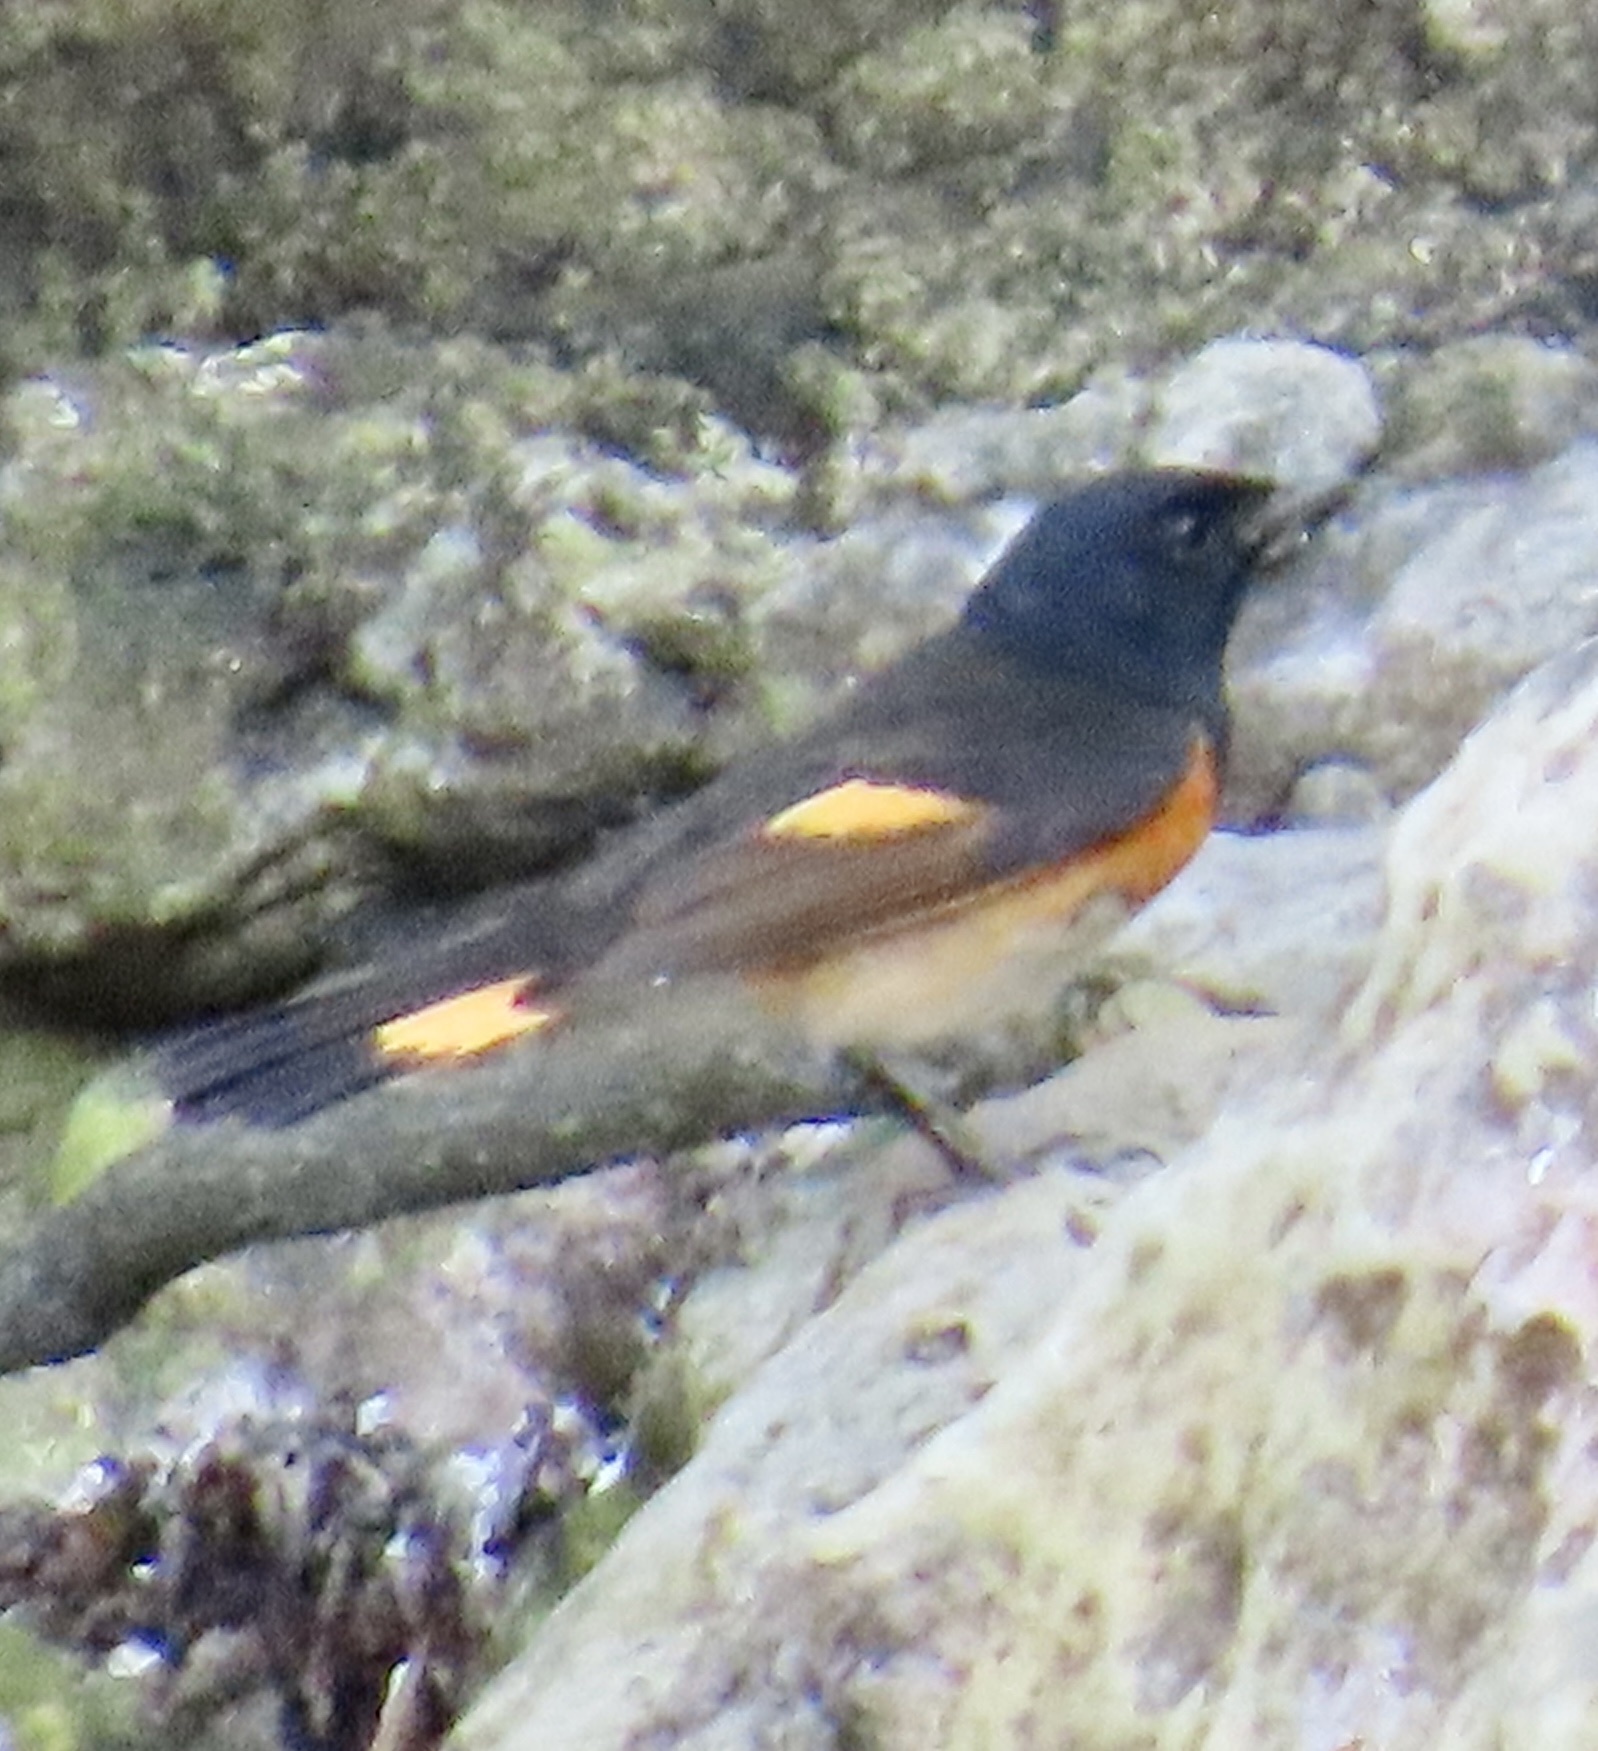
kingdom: Animalia
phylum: Chordata
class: Aves
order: Passeriformes
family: Parulidae
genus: Setophaga
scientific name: Setophaga ruticilla
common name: American redstart
